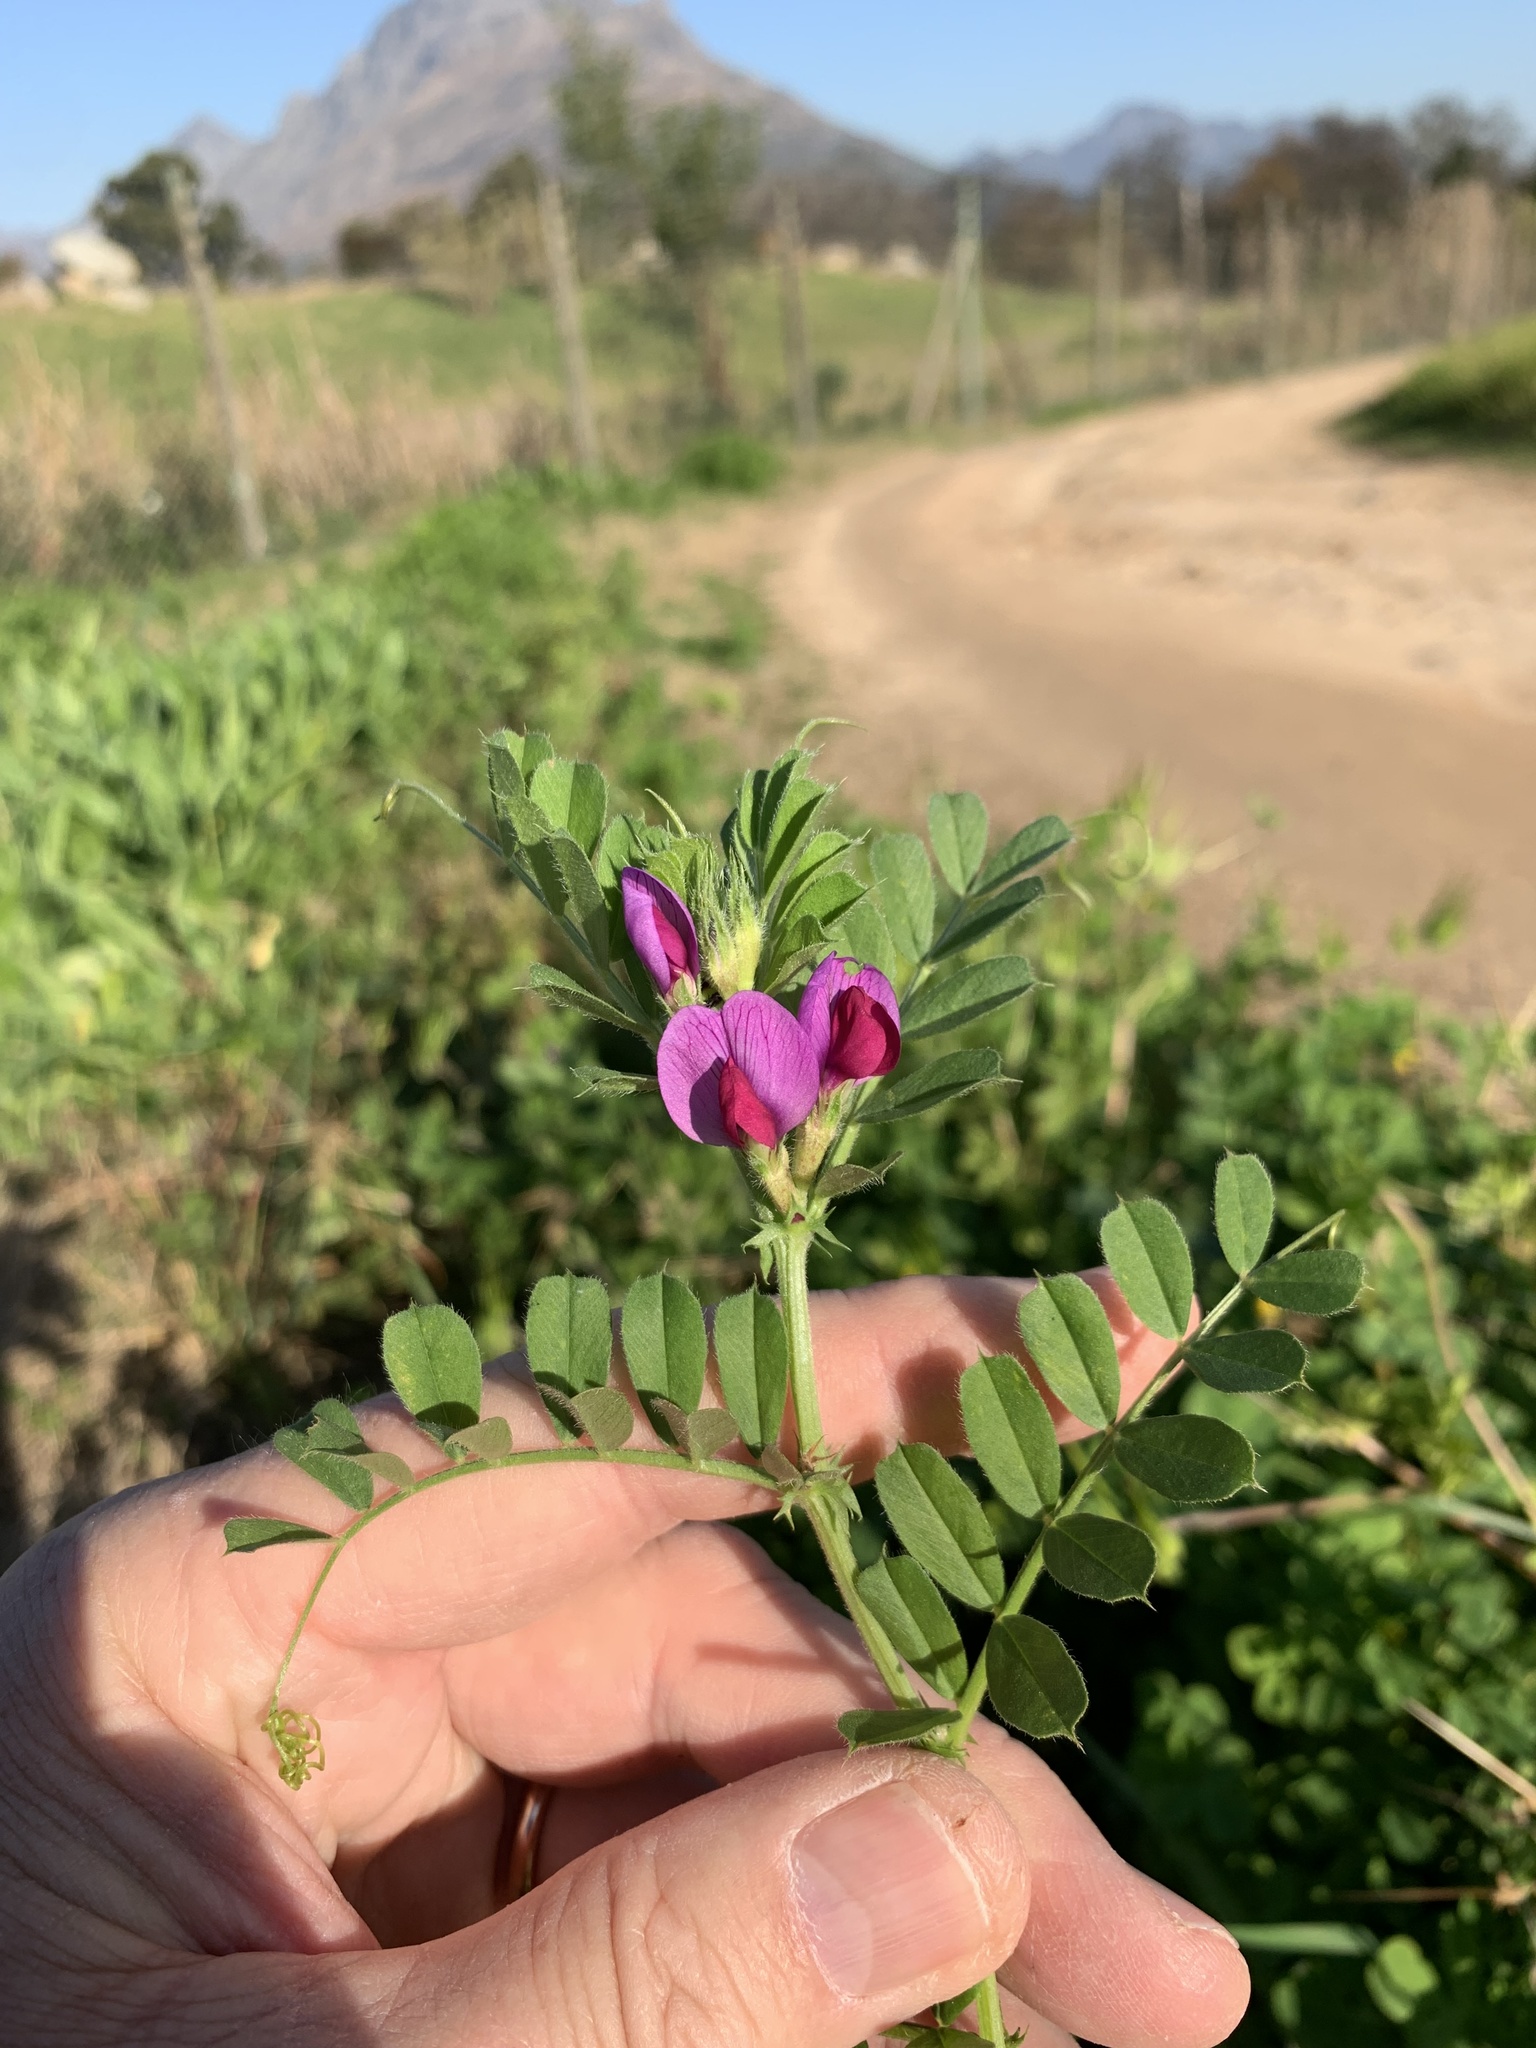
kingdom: Plantae
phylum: Tracheophyta
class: Magnoliopsida
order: Fabales
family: Fabaceae
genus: Vicia
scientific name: Vicia sativa
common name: Garden vetch
